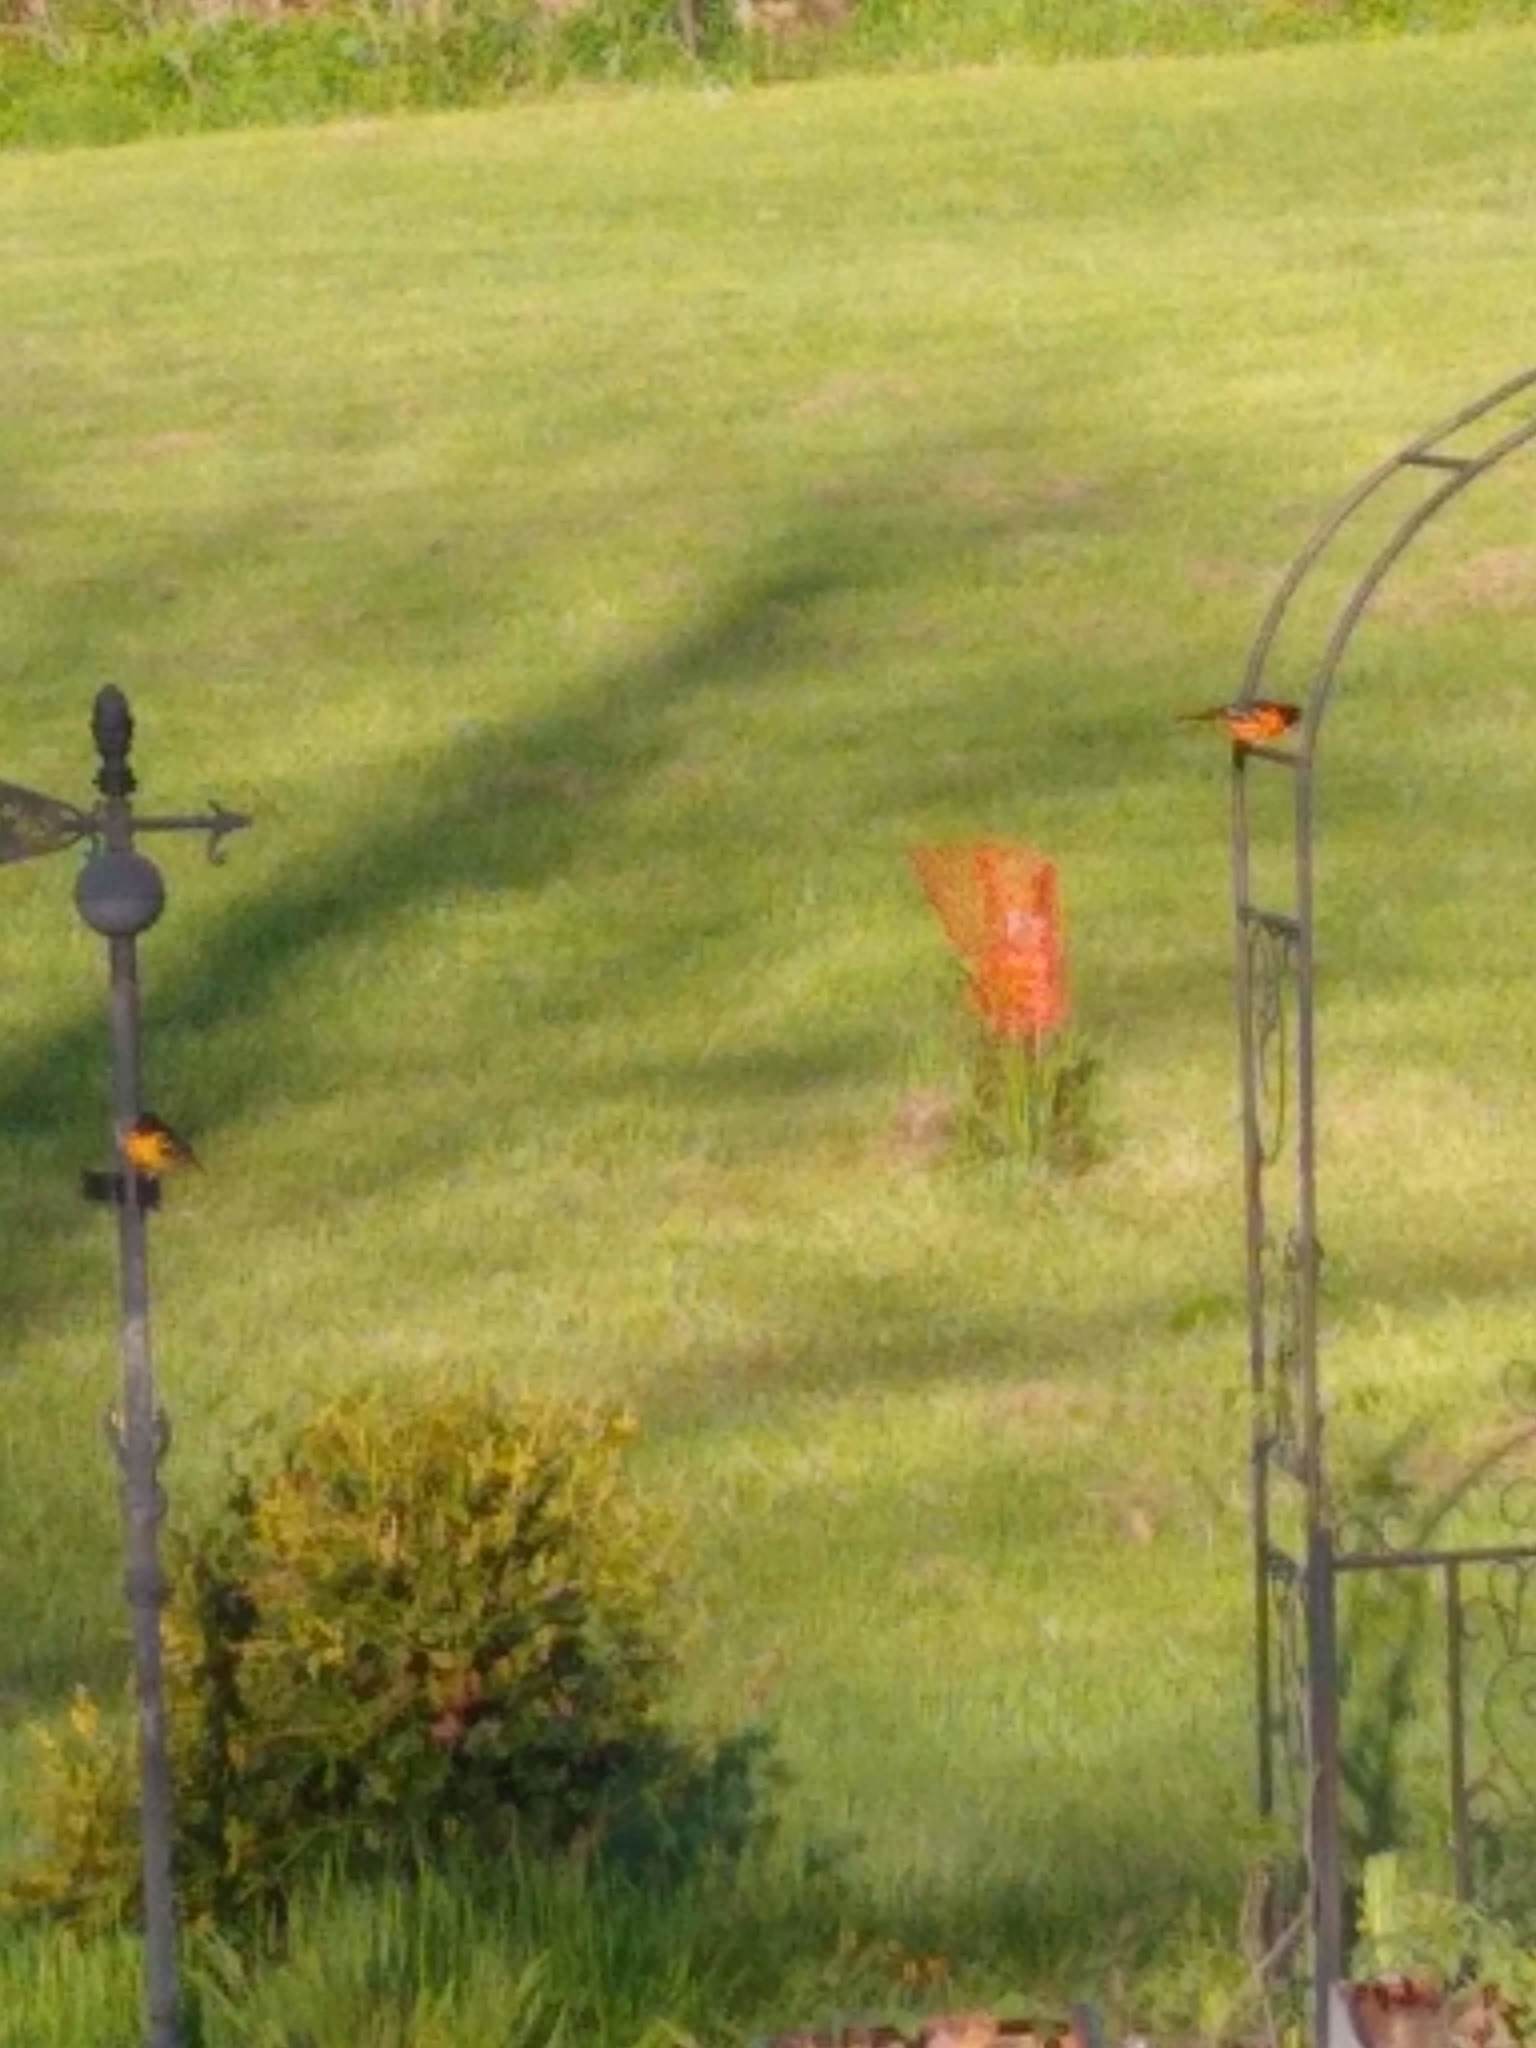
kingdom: Animalia
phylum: Chordata
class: Aves
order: Passeriformes
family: Icteridae
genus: Icterus
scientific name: Icterus galbula
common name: Baltimore oriole
